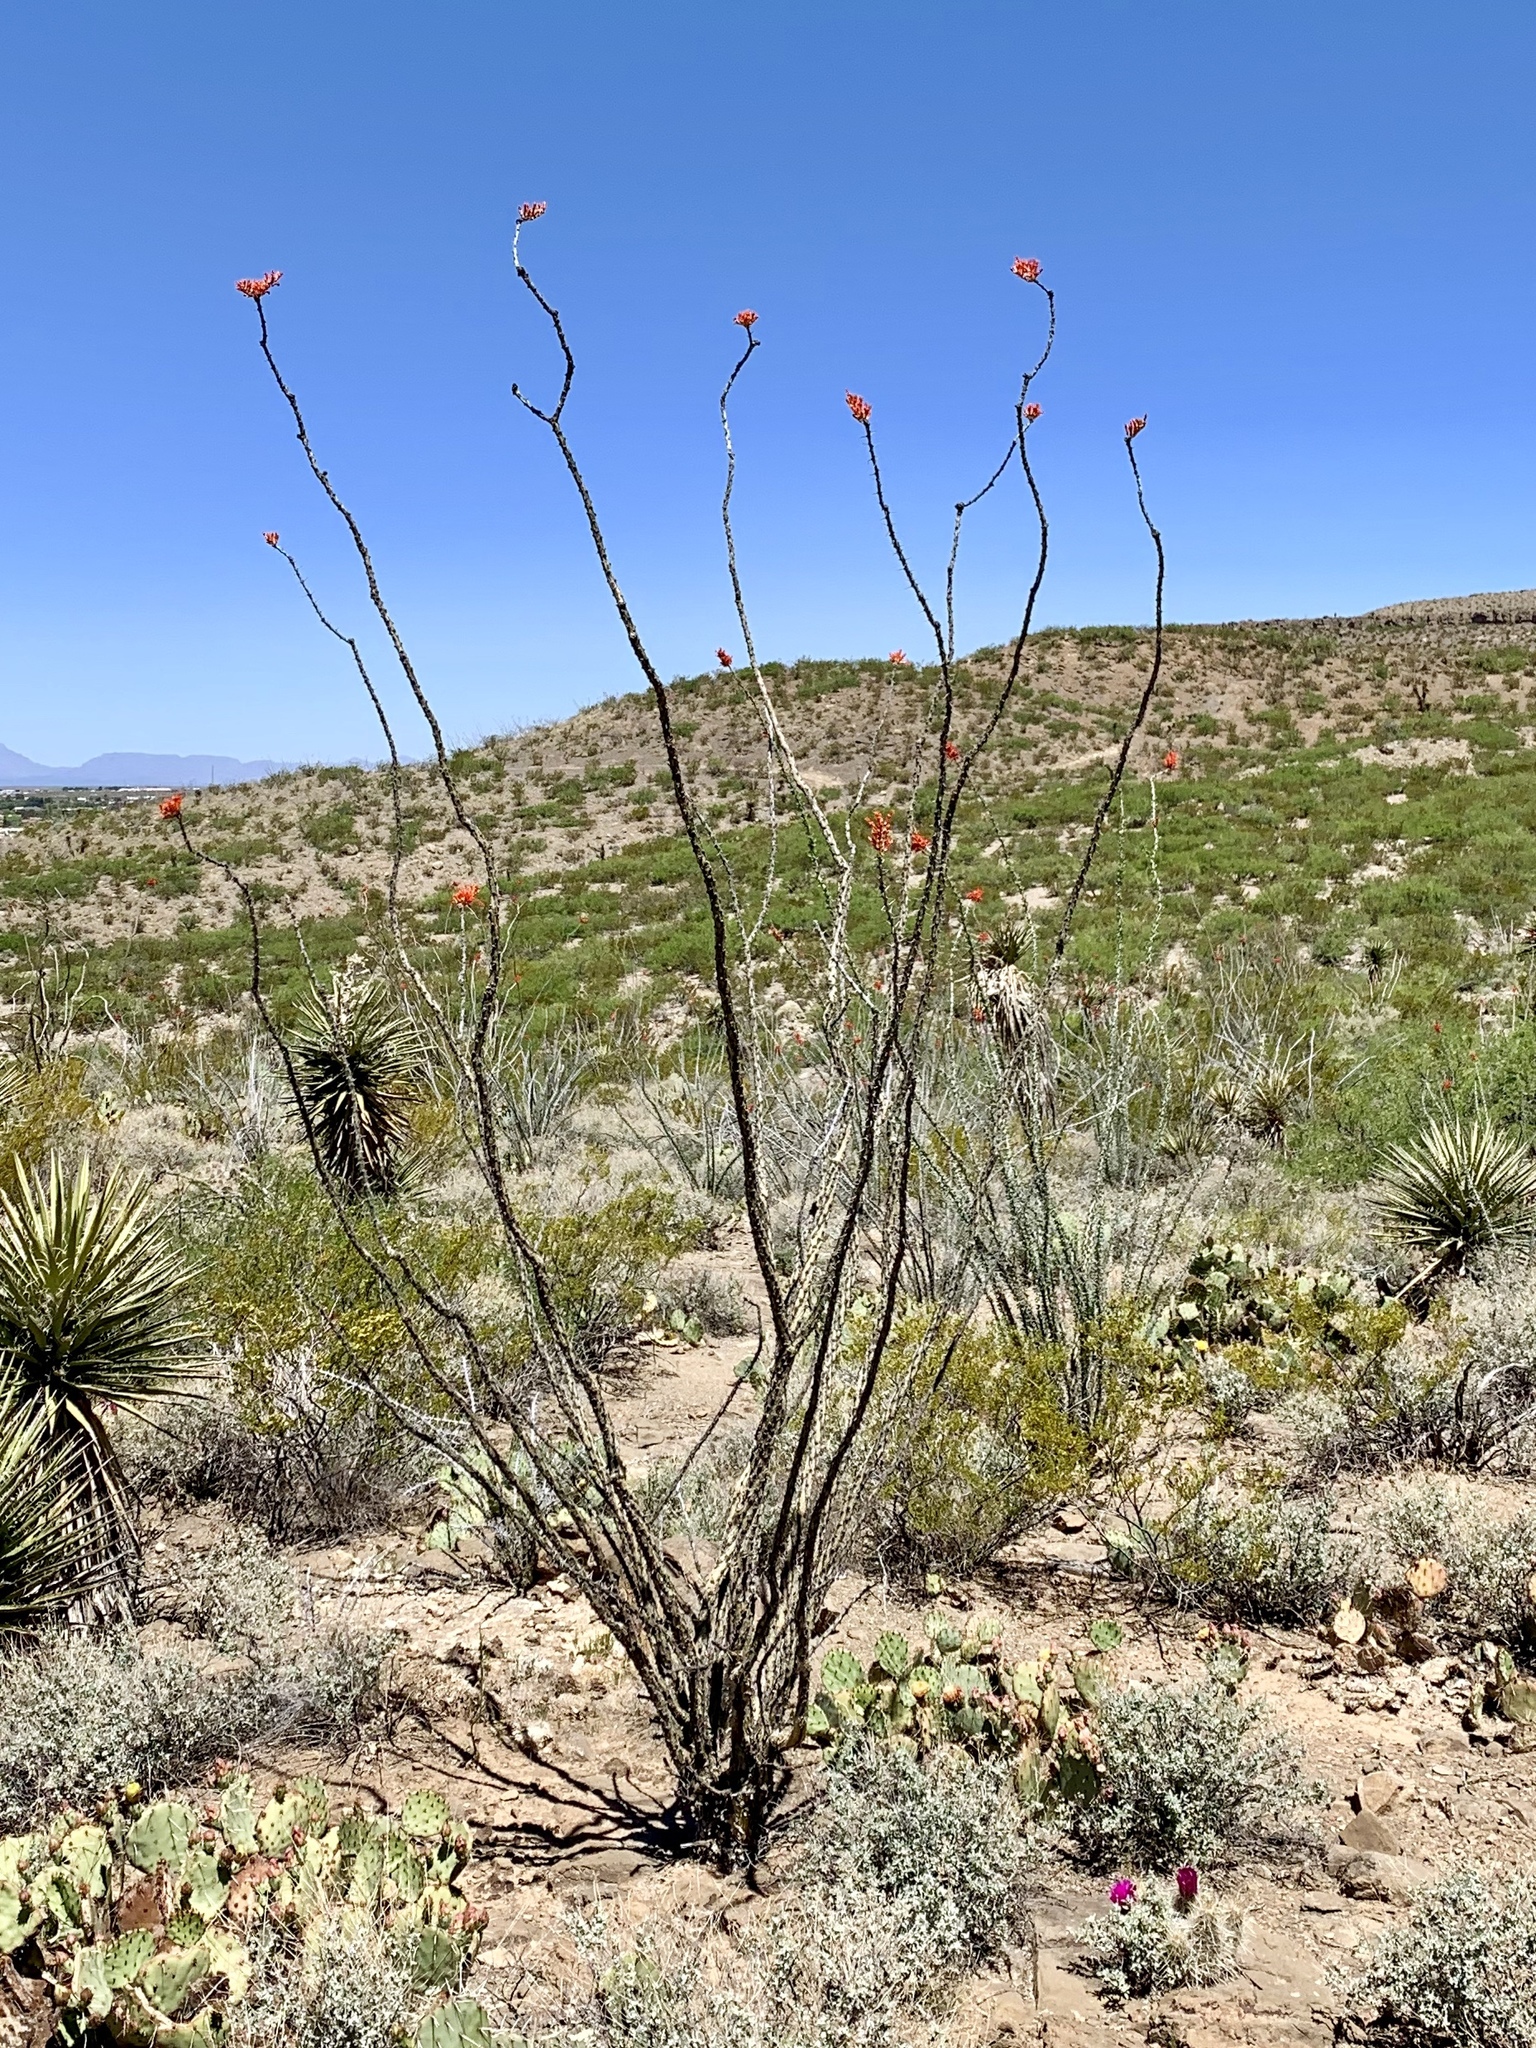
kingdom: Plantae
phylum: Tracheophyta
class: Magnoliopsida
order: Ericales
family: Fouquieriaceae
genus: Fouquieria
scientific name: Fouquieria splendens
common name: Vine-cactus
